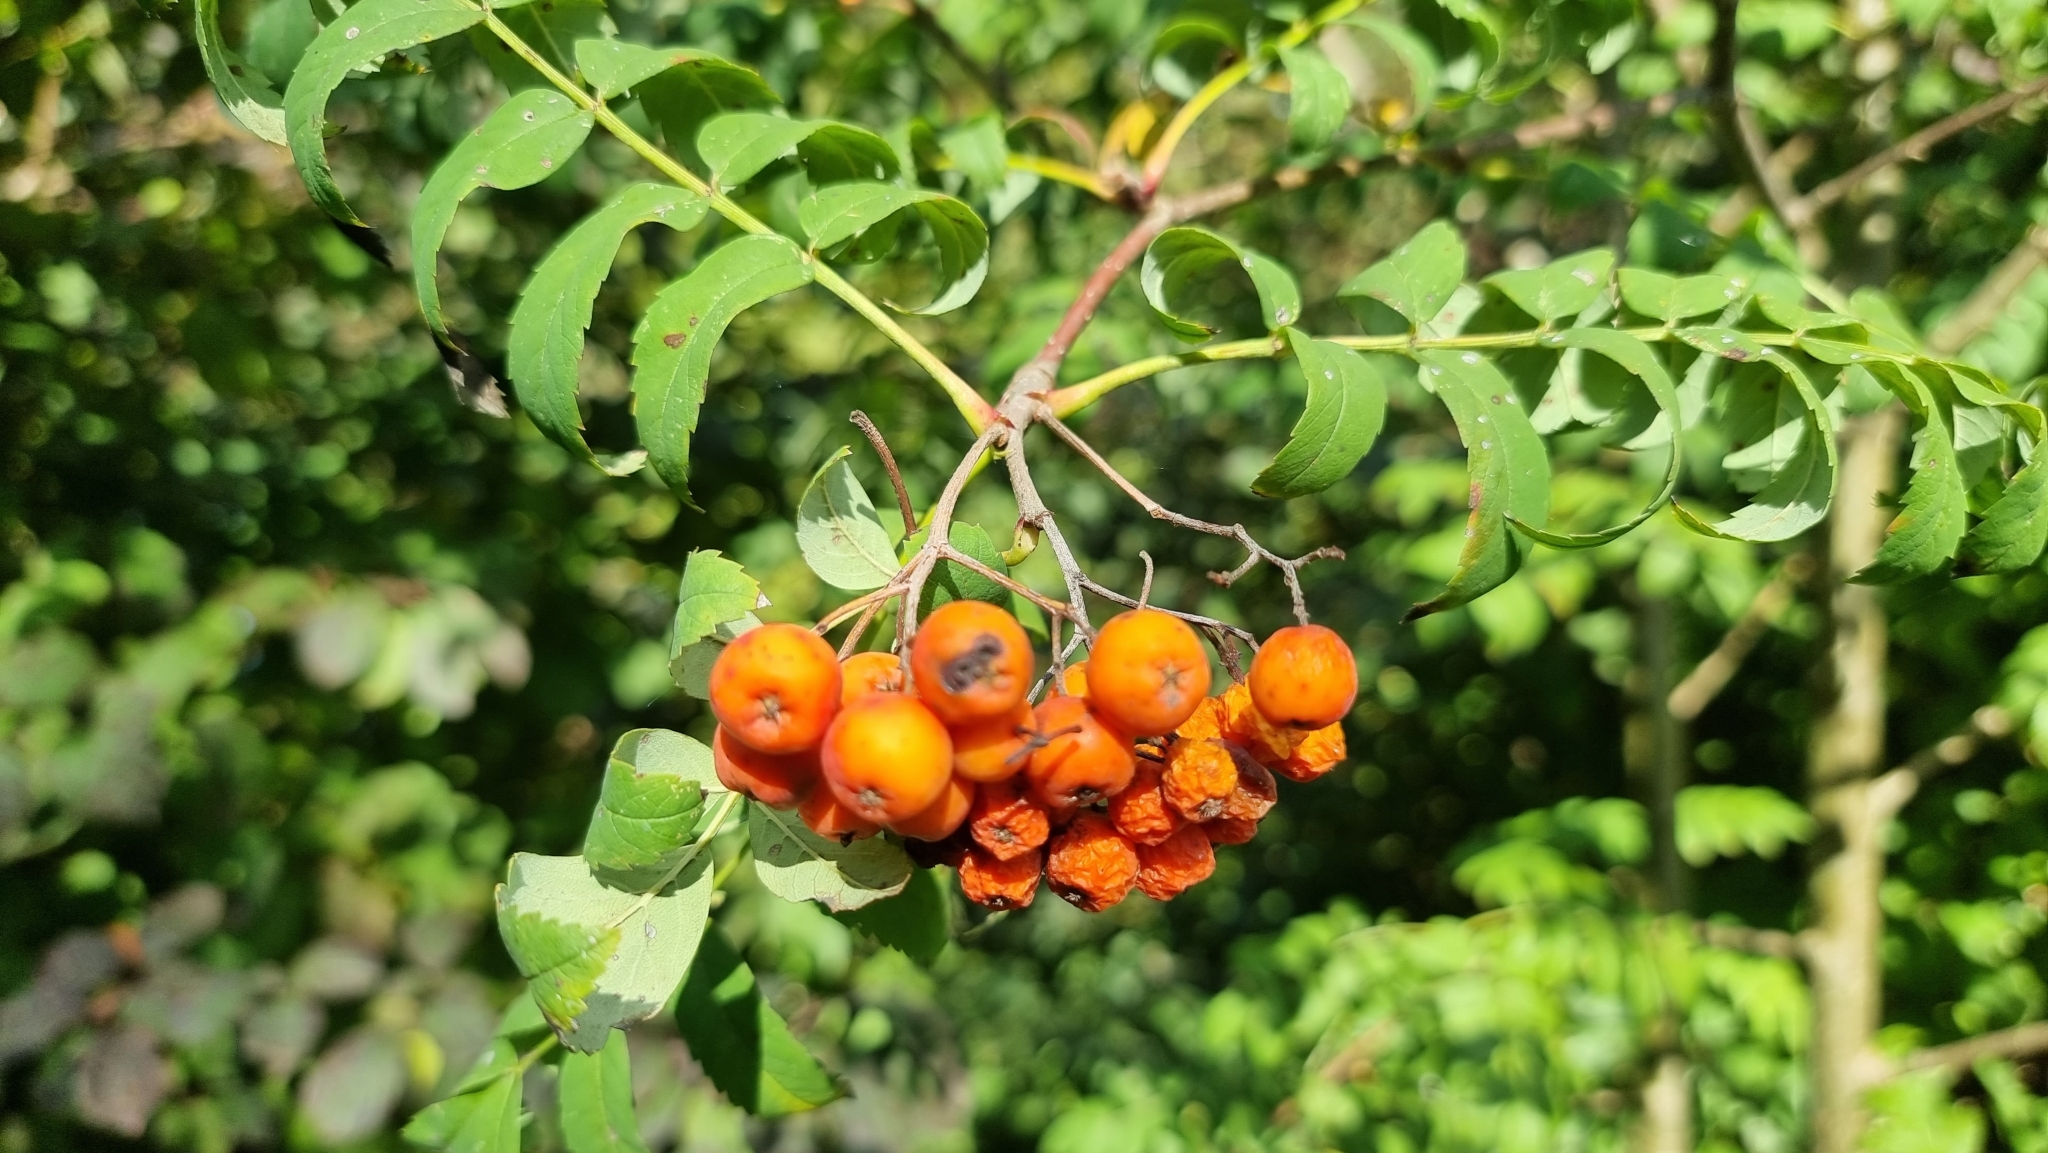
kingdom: Plantae
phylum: Tracheophyta
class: Magnoliopsida
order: Rosales
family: Rosaceae
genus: Sorbus
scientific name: Sorbus aucuparia
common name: Rowan
